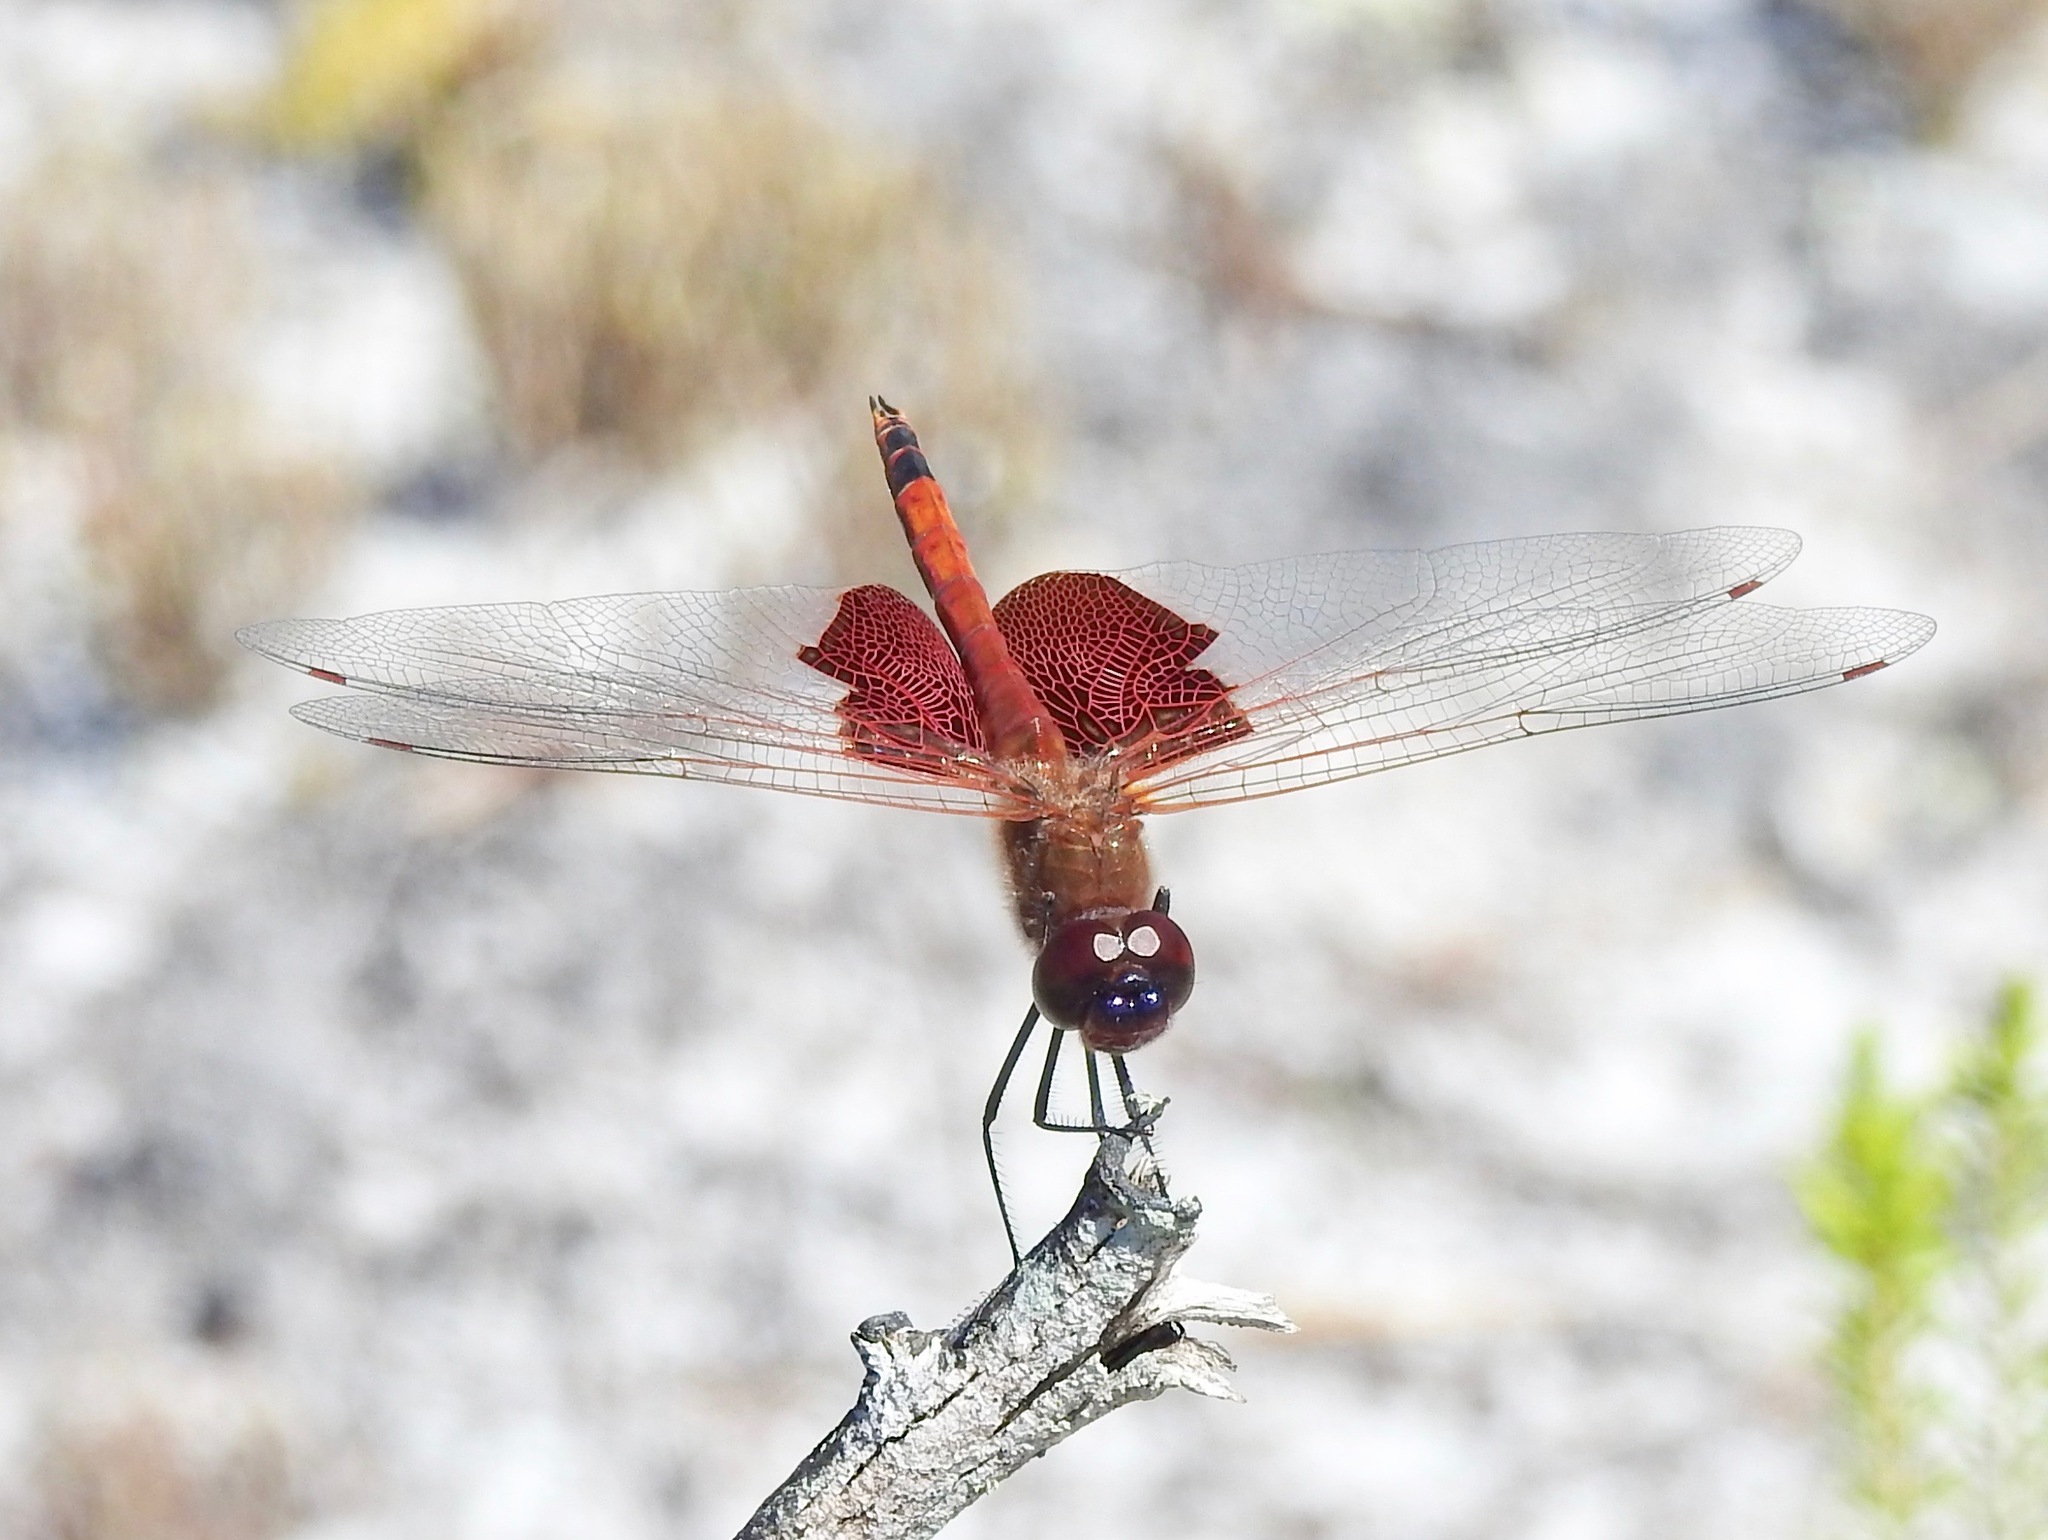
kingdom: Animalia
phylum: Arthropoda
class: Insecta
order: Odonata
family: Libellulidae
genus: Tramea
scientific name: Tramea carolina
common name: Carolina saddlebags
